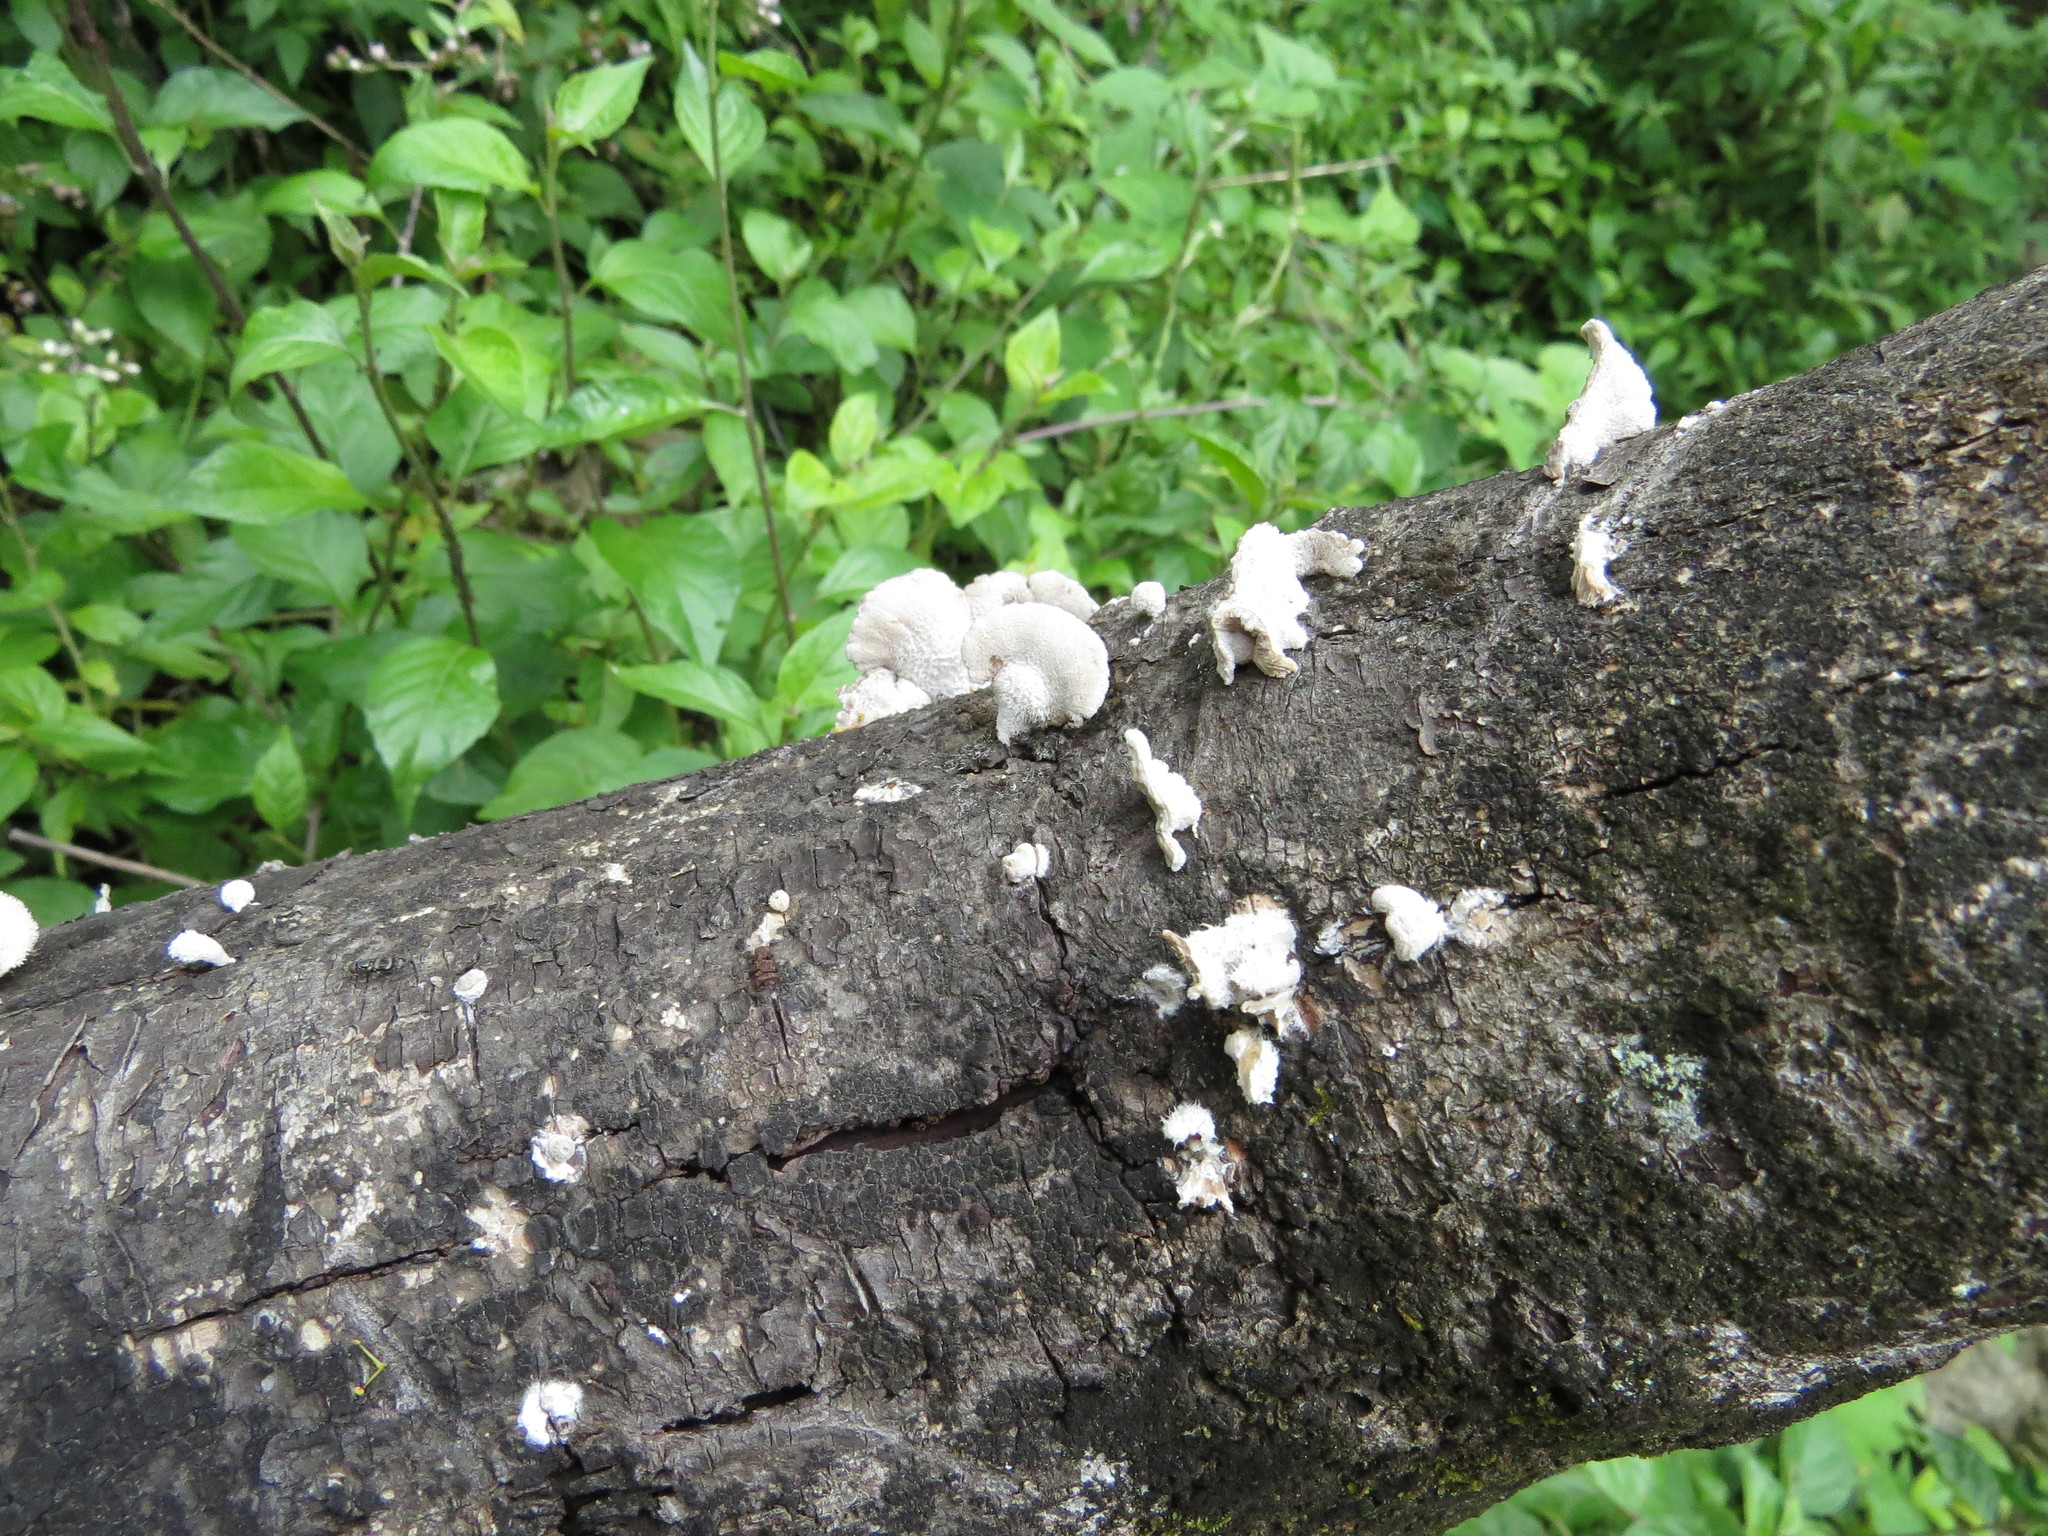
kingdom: Fungi
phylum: Basidiomycota
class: Agaricomycetes
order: Agaricales
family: Schizophyllaceae
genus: Schizophyllum
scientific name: Schizophyllum commune
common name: Common porecrust
